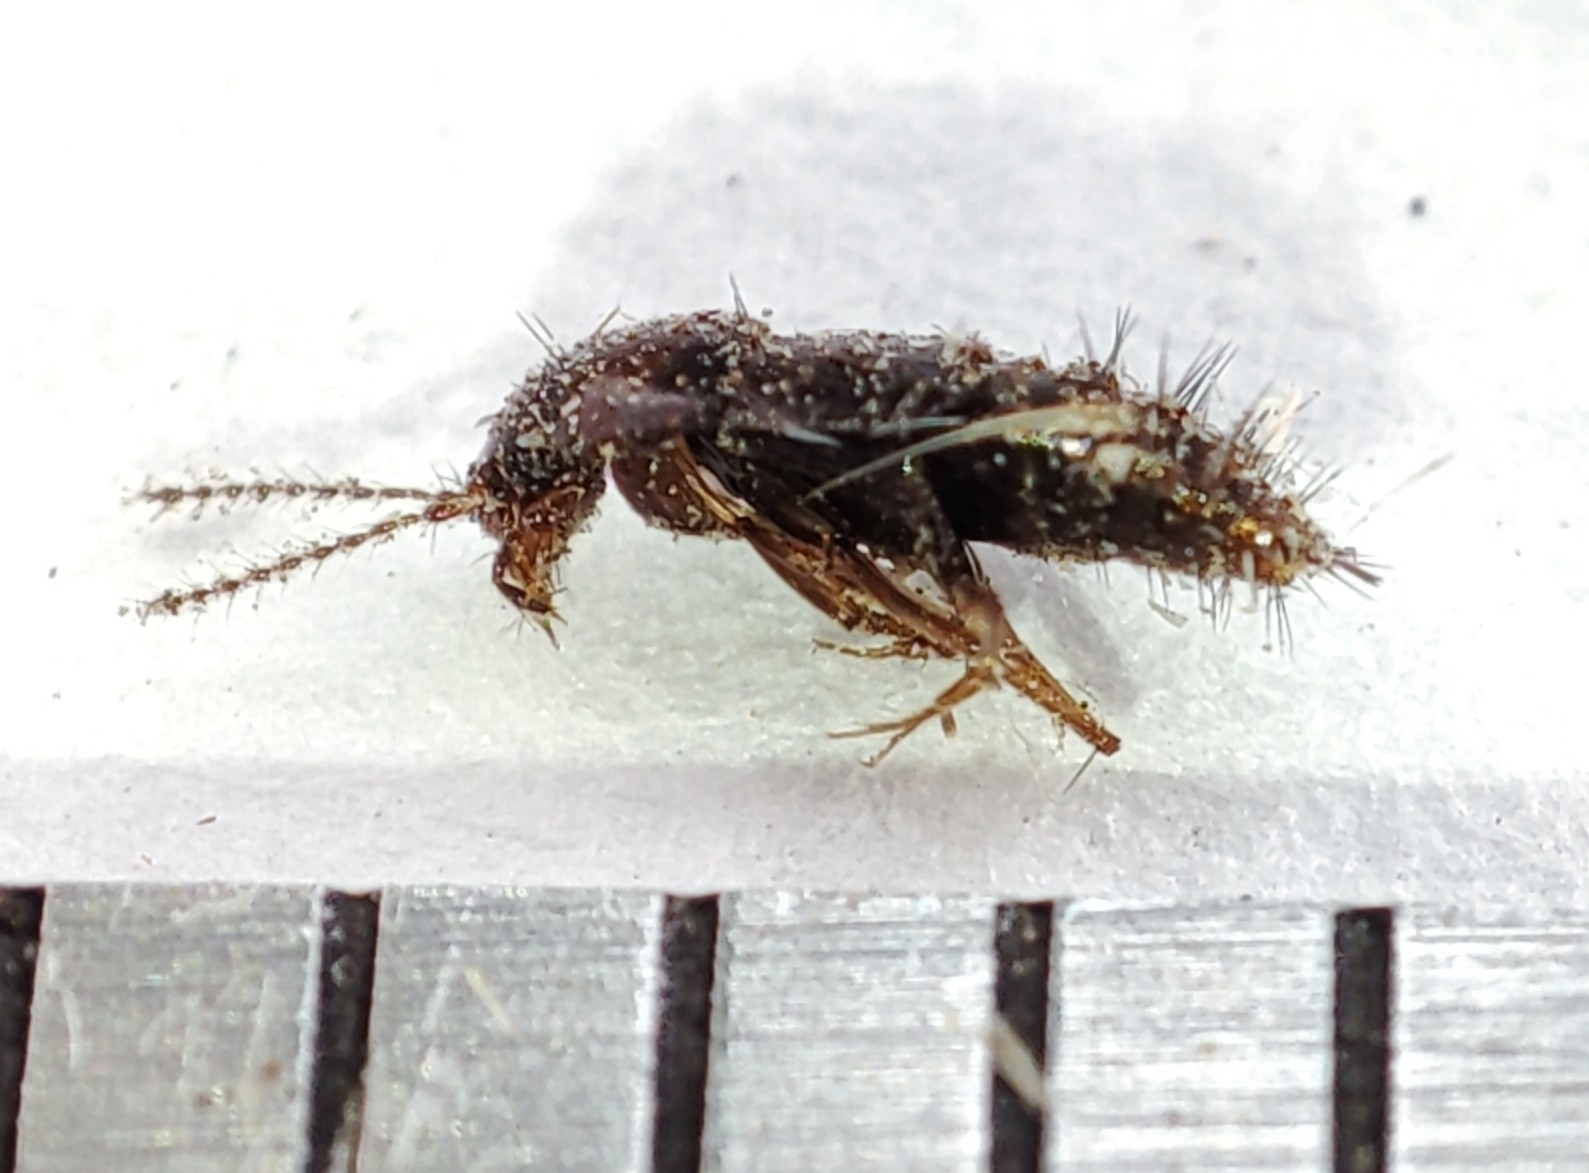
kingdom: Animalia
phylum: Arthropoda
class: Insecta
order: Coleoptera
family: Staphylinidae
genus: Habrocerus
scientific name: Habrocerus capillaricornis
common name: Staph beetle
